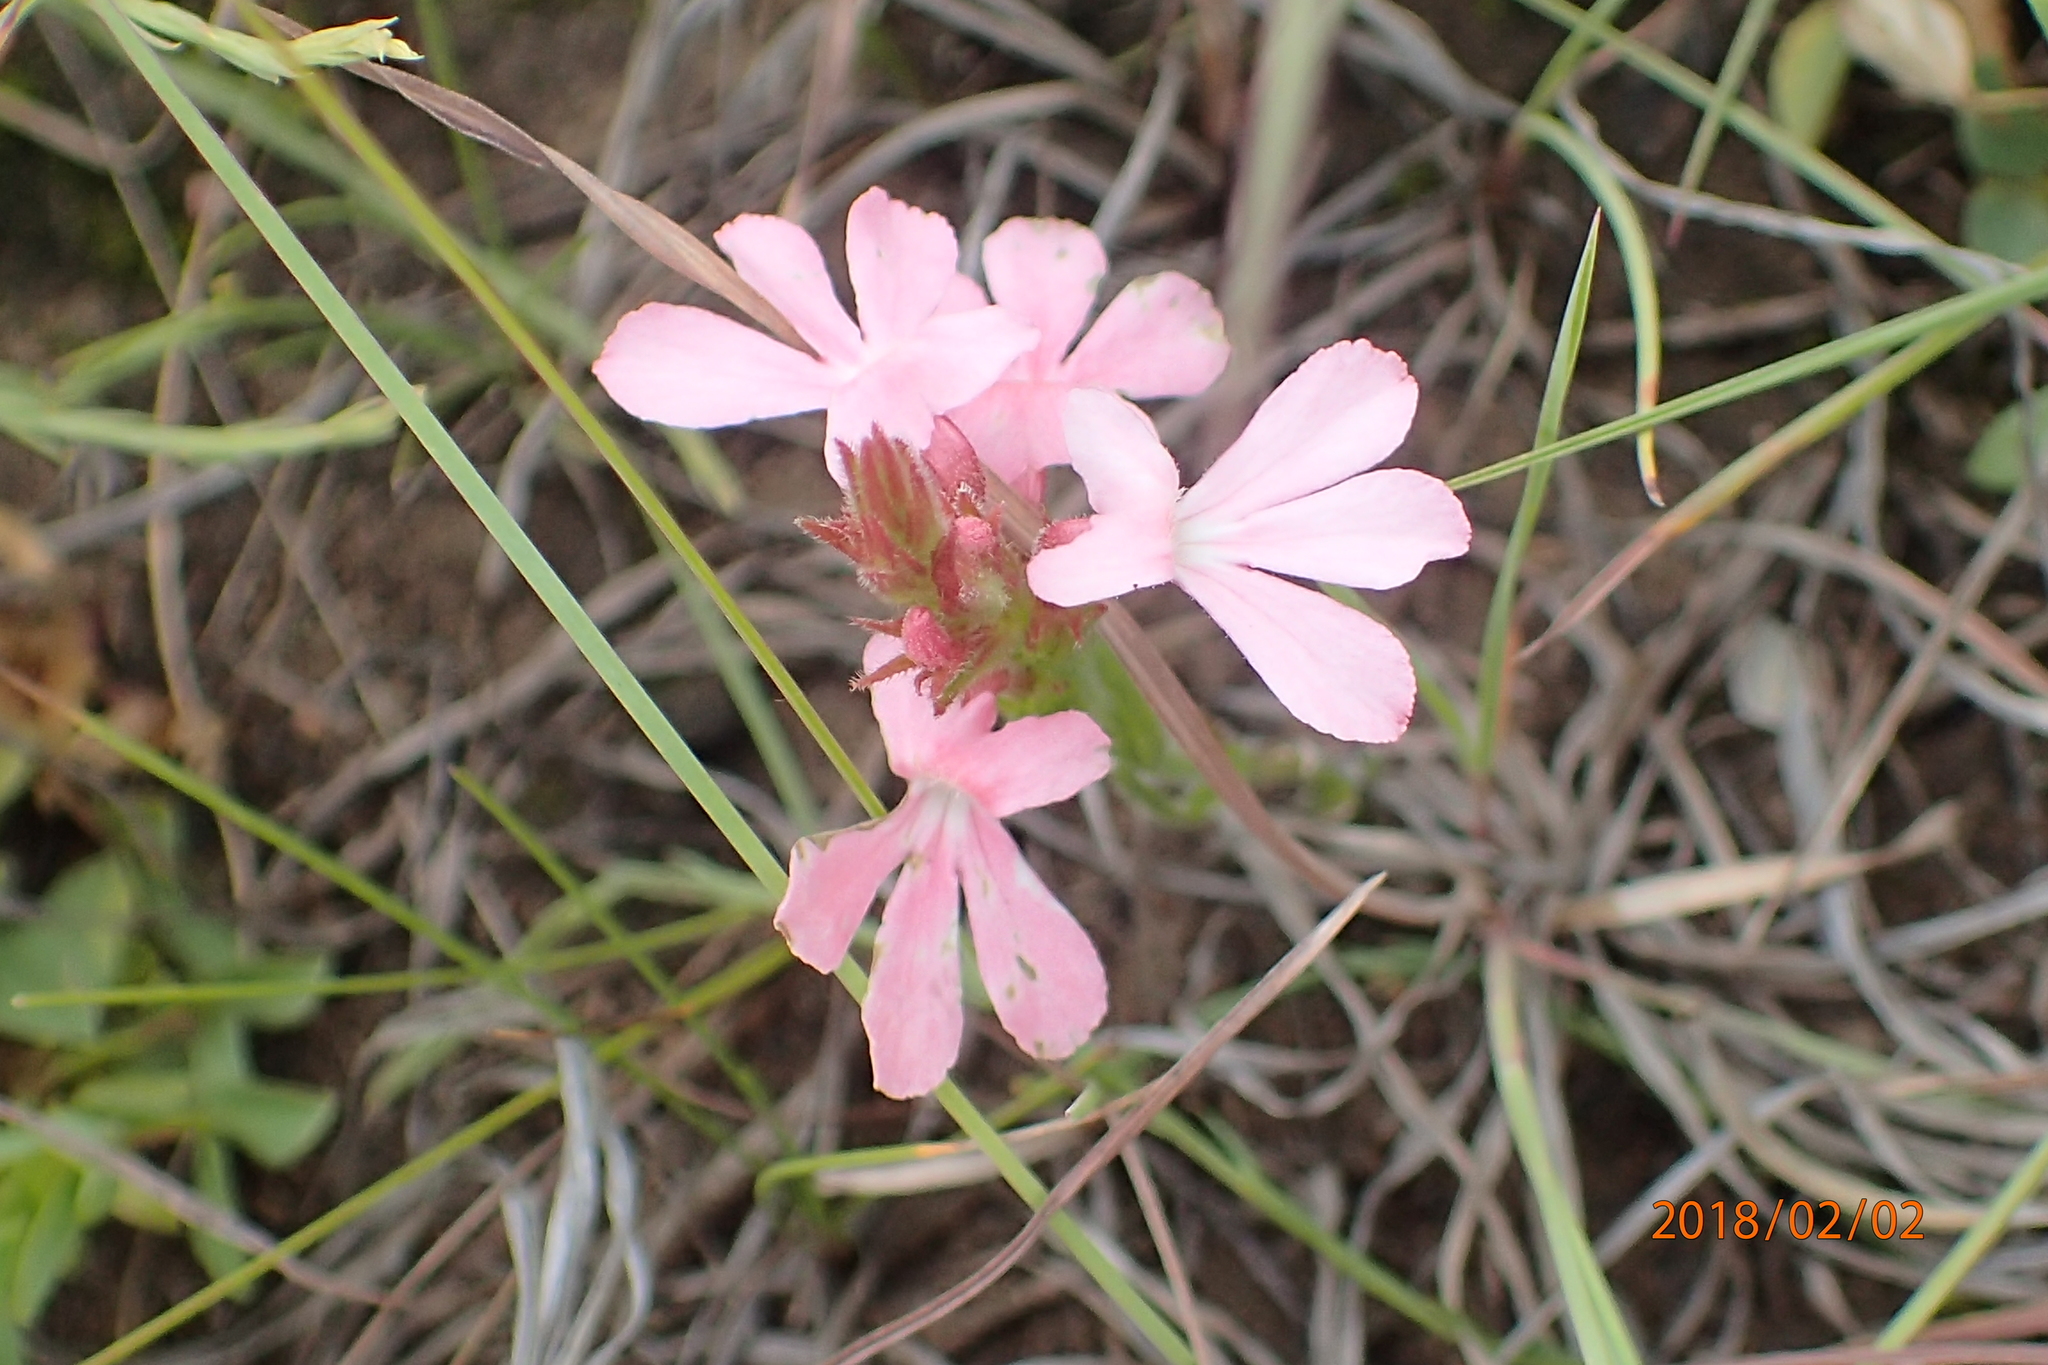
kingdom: Plantae
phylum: Tracheophyta
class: Magnoliopsida
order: Lamiales
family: Orobanchaceae
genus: Striga
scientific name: Striga elegans
